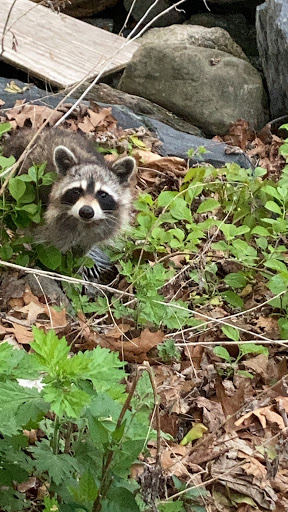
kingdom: Animalia
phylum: Chordata
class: Mammalia
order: Carnivora
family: Procyonidae
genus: Procyon
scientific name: Procyon lotor
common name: Raccoon
